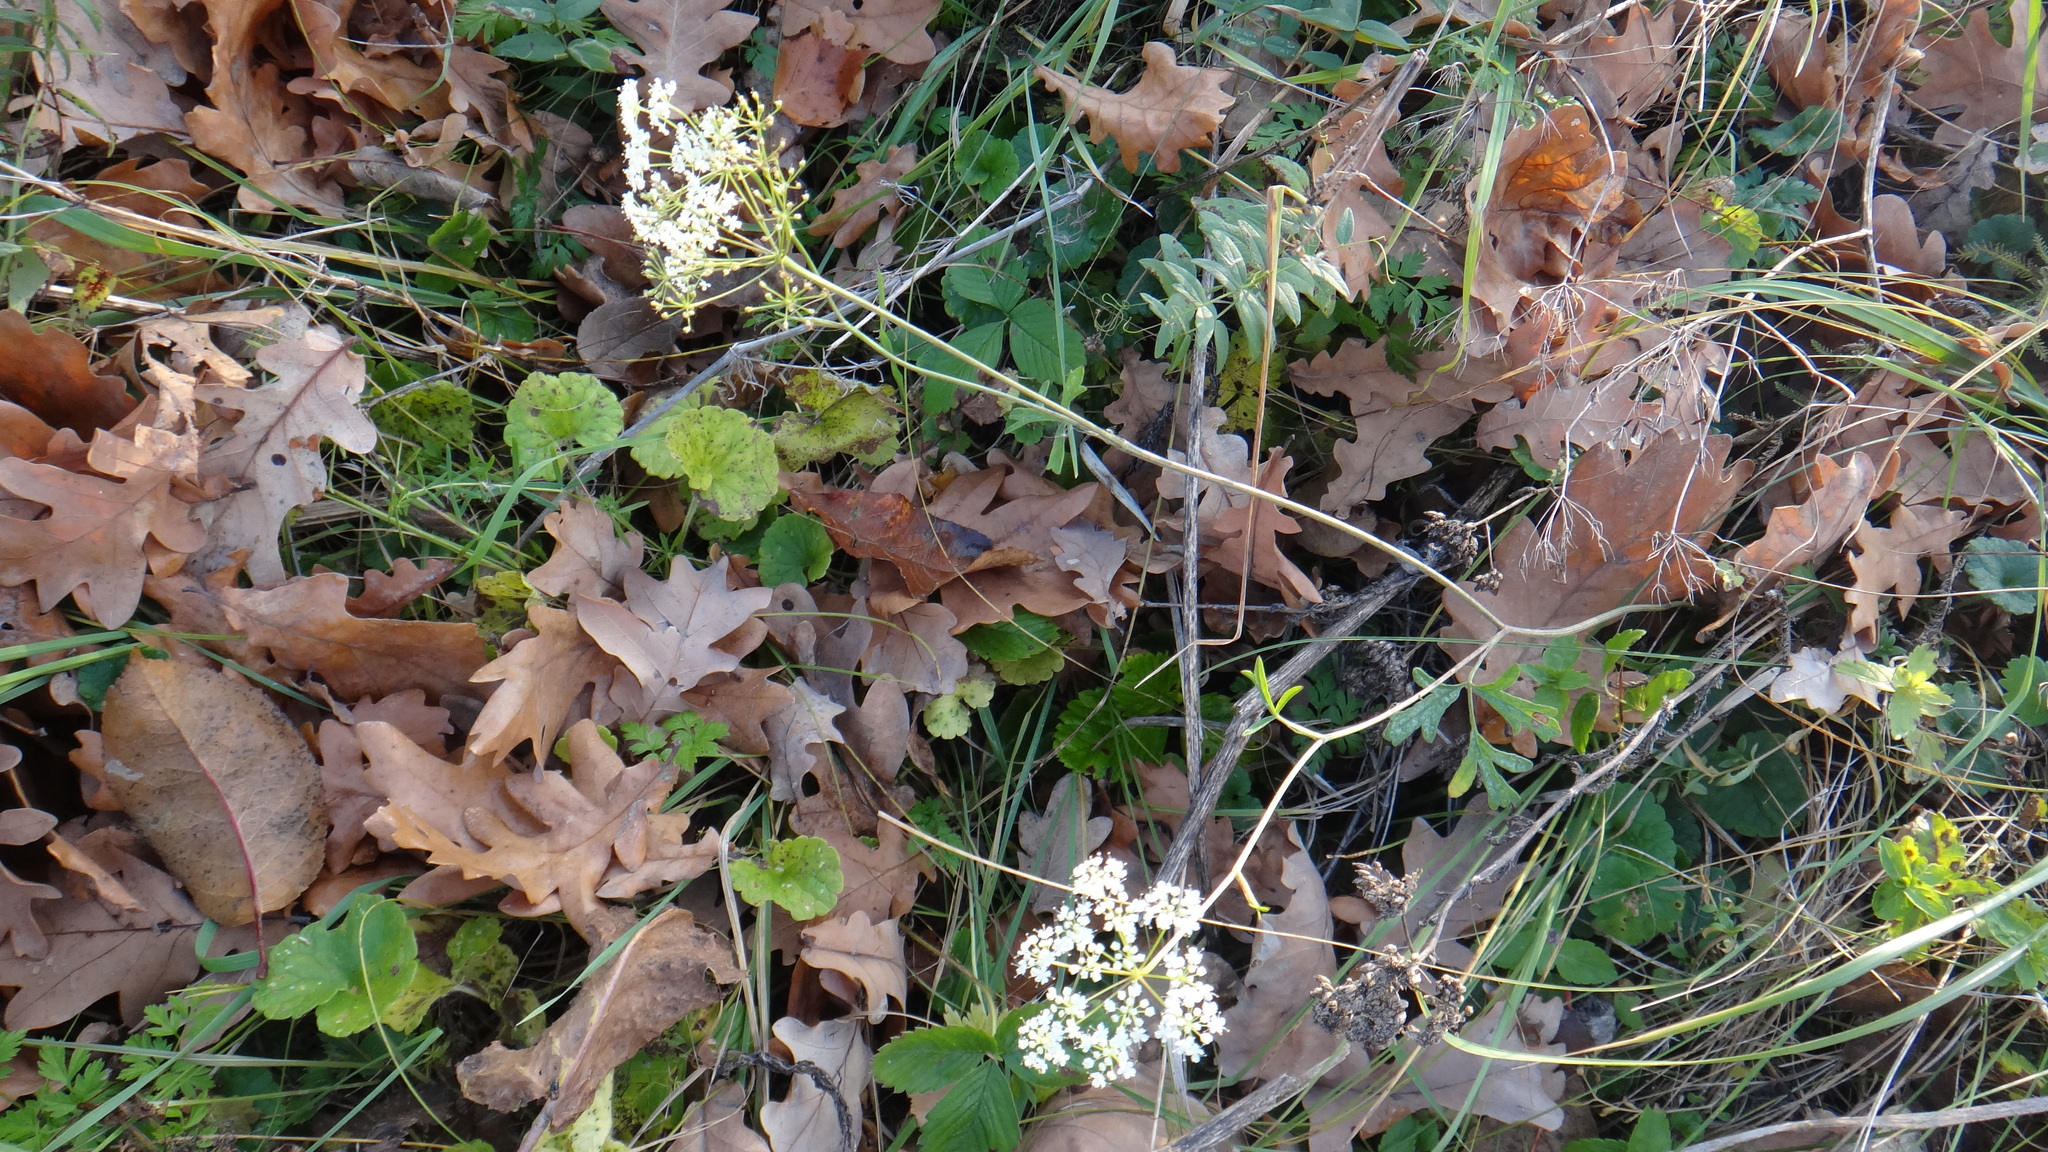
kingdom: Plantae
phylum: Tracheophyta
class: Magnoliopsida
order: Apiales
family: Apiaceae
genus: Pimpinella
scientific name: Pimpinella saxifraga
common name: Burnet-saxifrage
